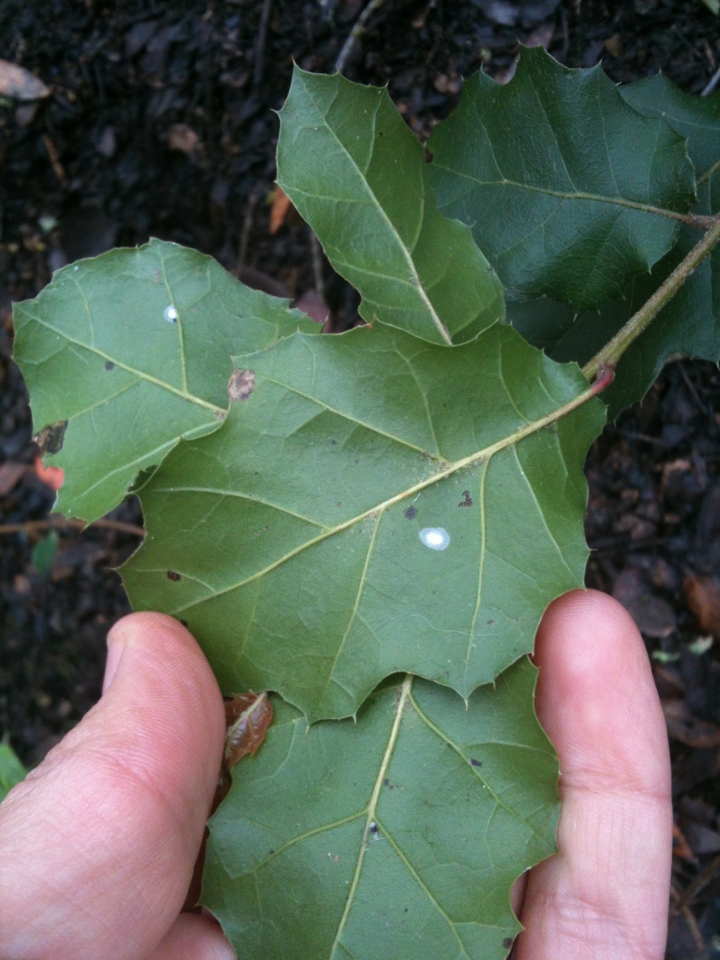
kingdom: Plantae
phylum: Tracheophyta
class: Magnoliopsida
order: Fagales
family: Fagaceae
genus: Quercus
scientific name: Quercus agrifolia
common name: California live oak
